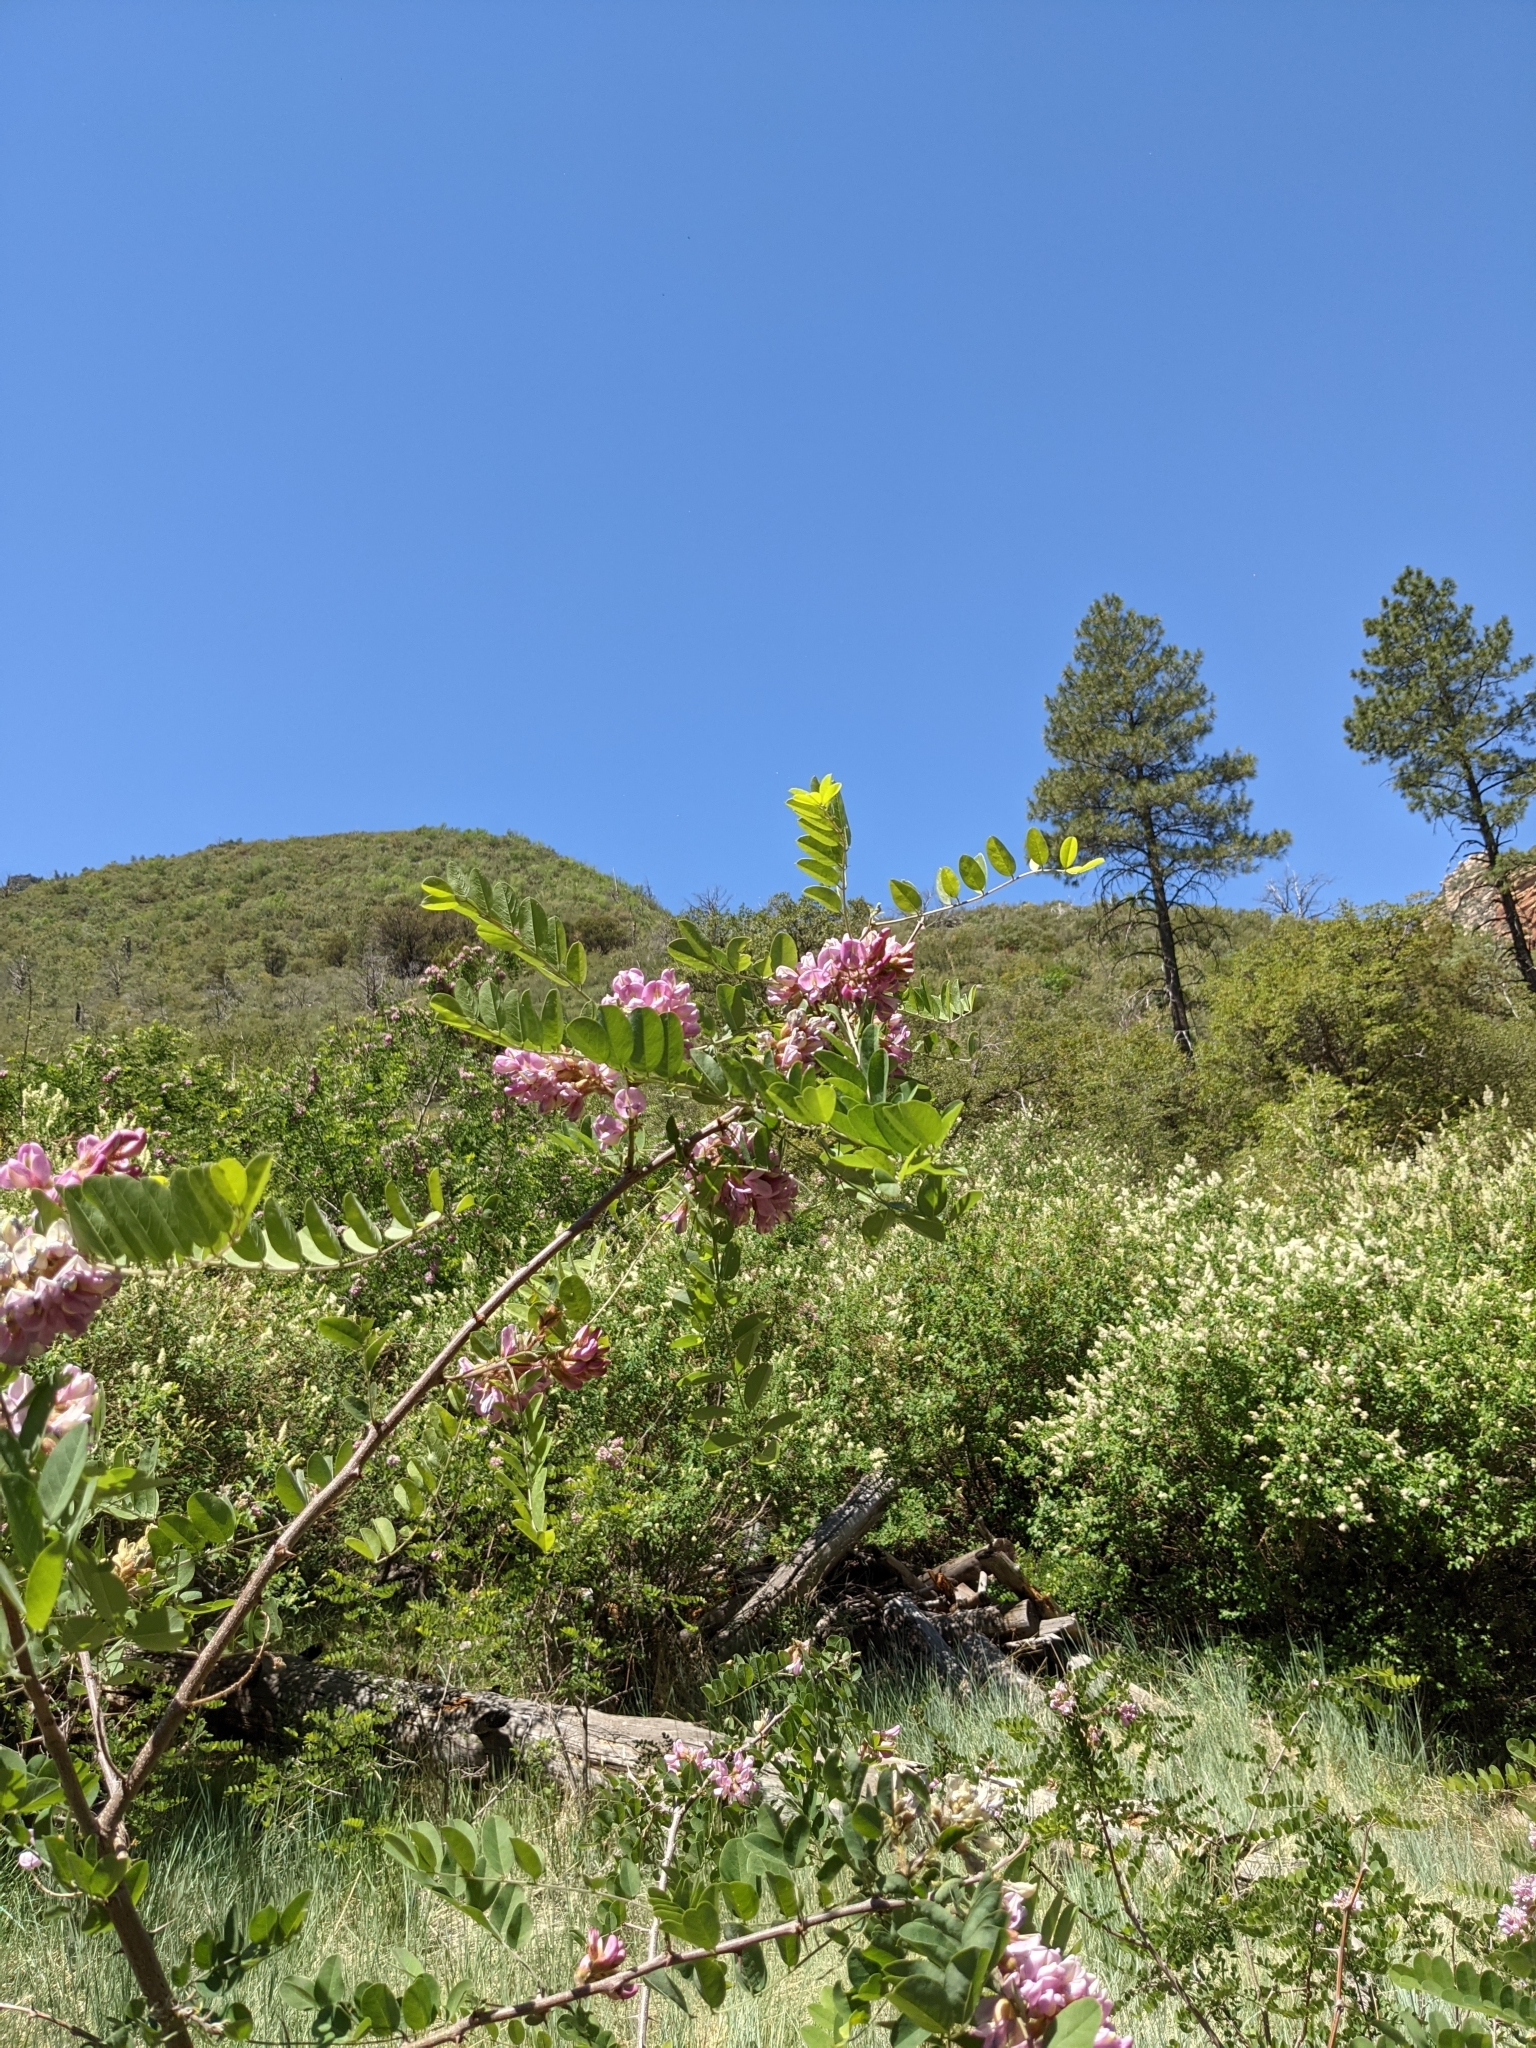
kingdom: Plantae
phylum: Tracheophyta
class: Magnoliopsida
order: Fabales
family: Fabaceae
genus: Robinia
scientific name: Robinia neomexicana
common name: New mexico locust
